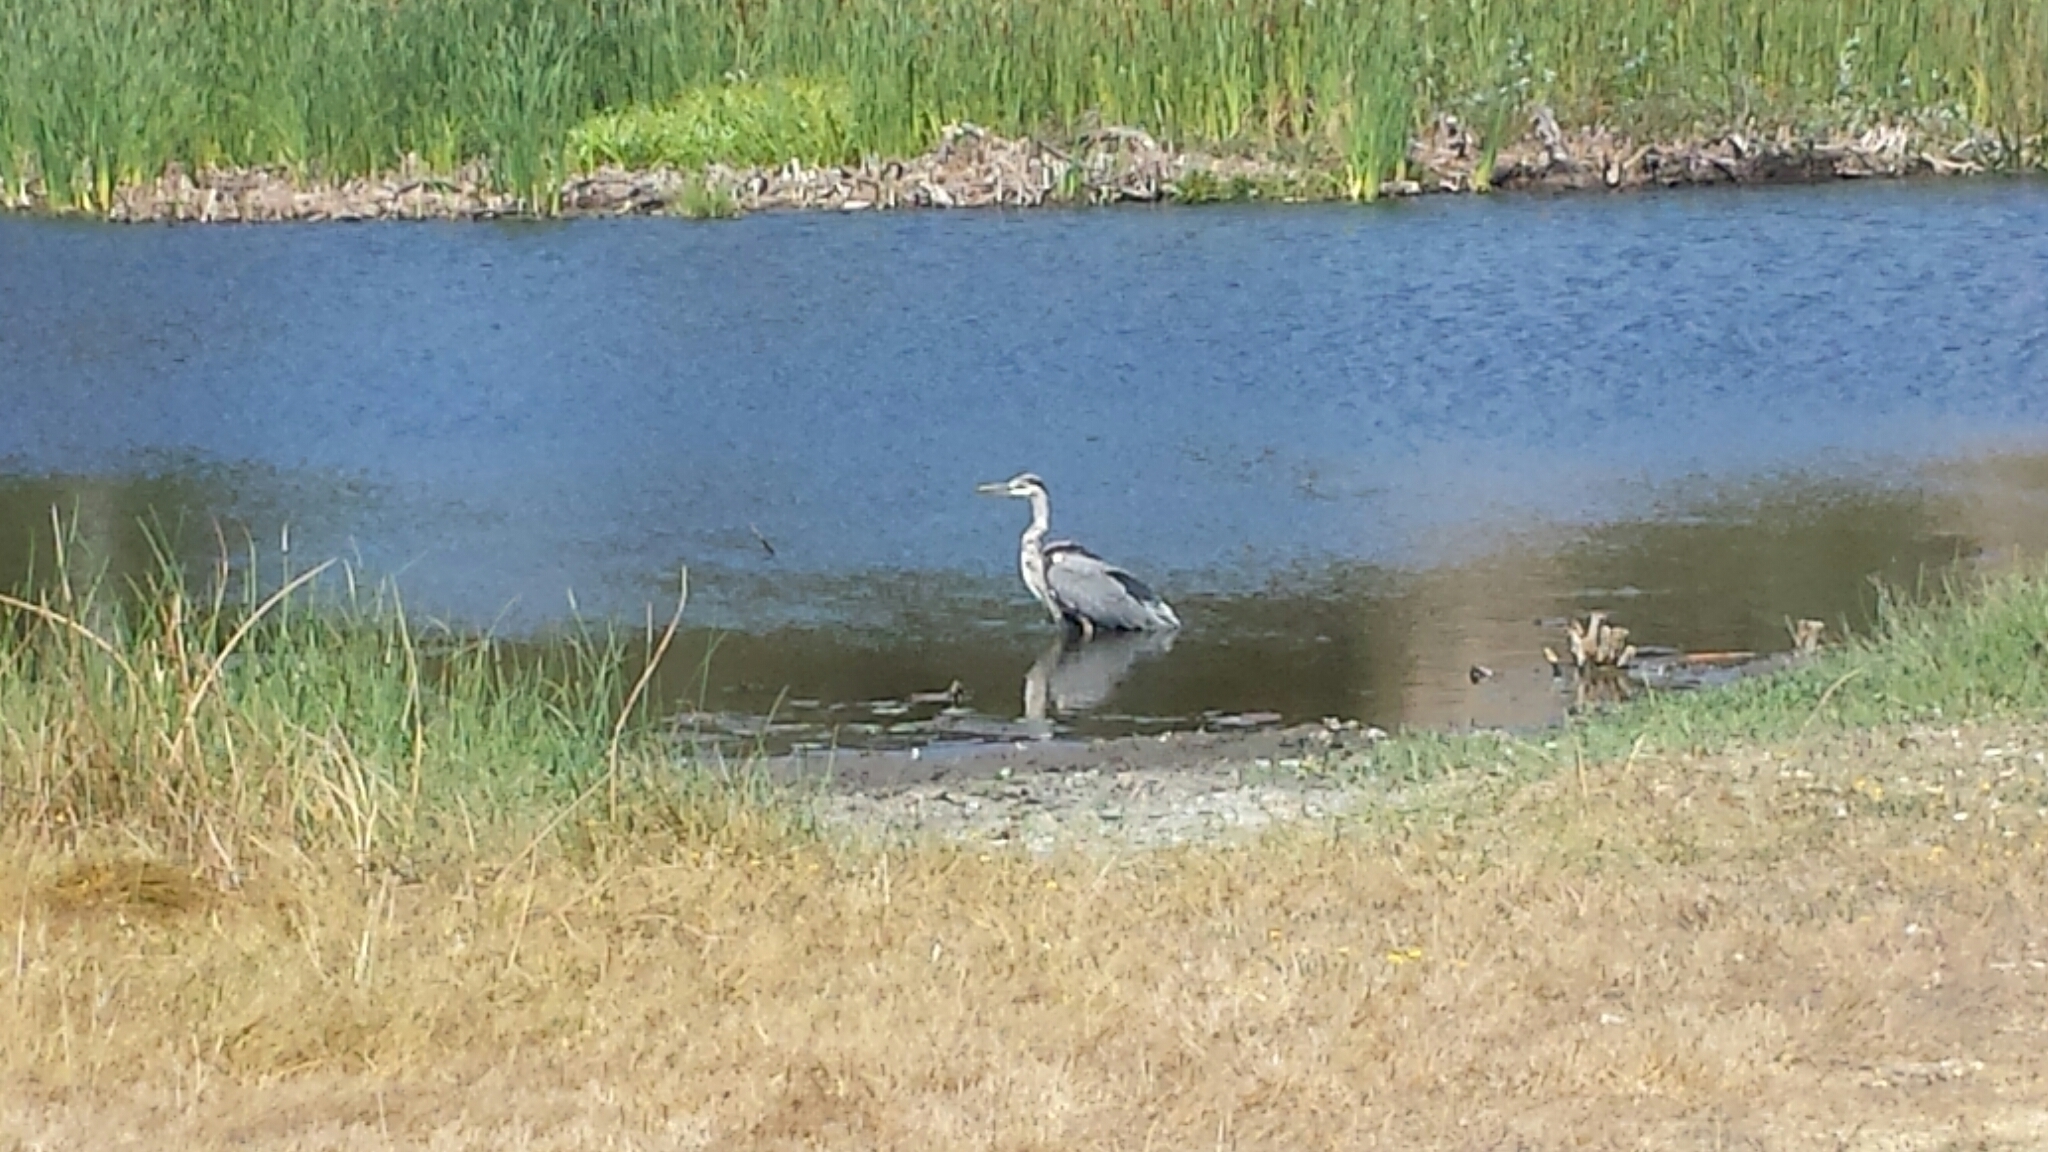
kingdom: Animalia
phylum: Chordata
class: Aves
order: Pelecaniformes
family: Ardeidae
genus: Ardea
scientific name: Ardea herodias
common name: Great blue heron
